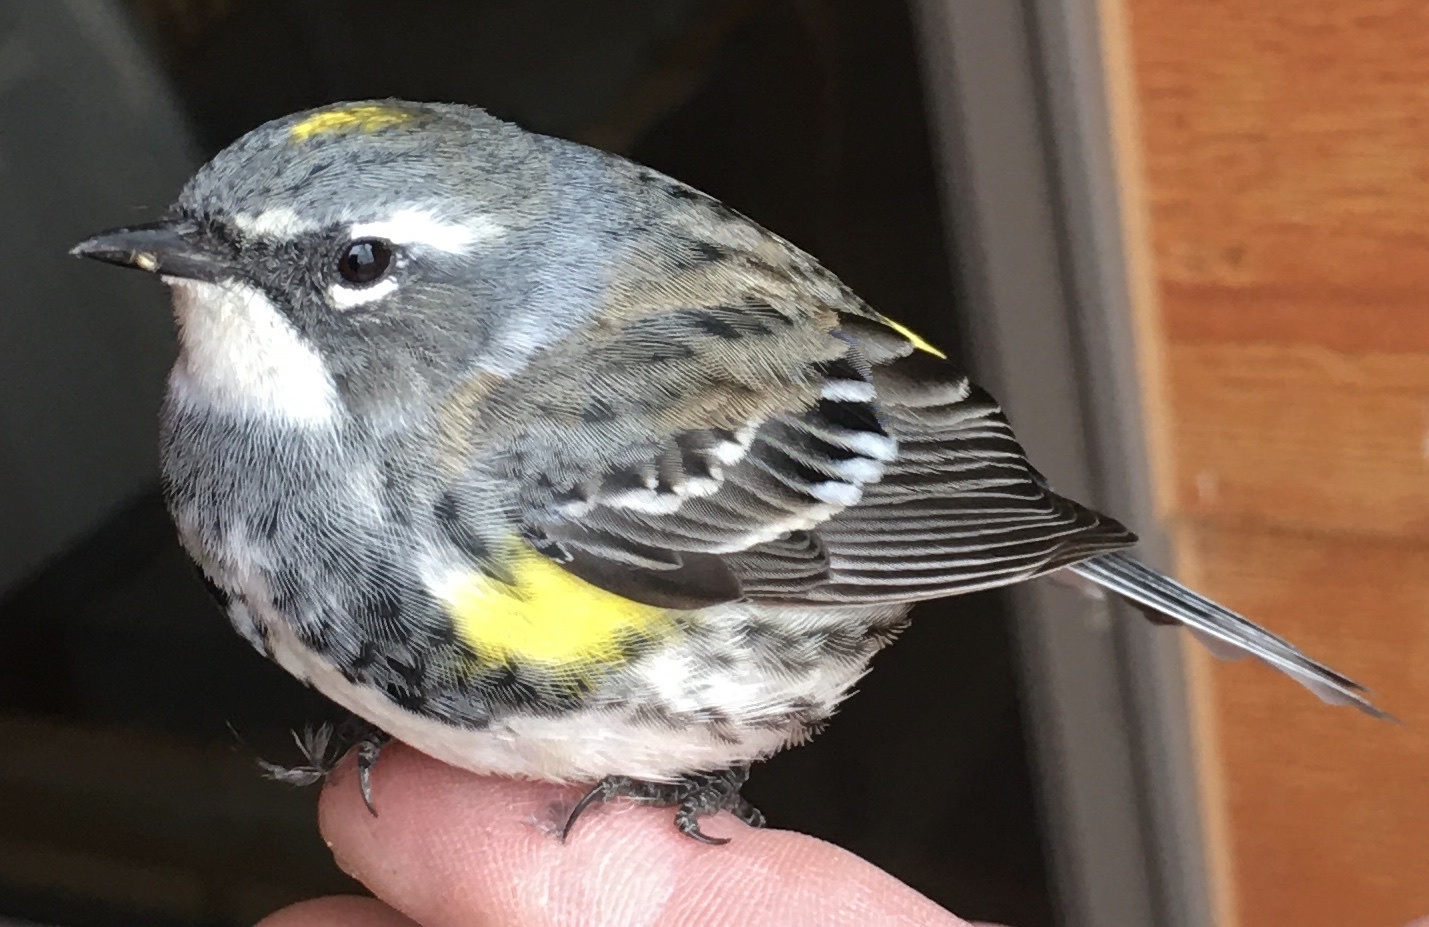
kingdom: Animalia
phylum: Chordata
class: Aves
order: Passeriformes
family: Parulidae
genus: Setophaga
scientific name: Setophaga coronata
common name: Myrtle warbler
